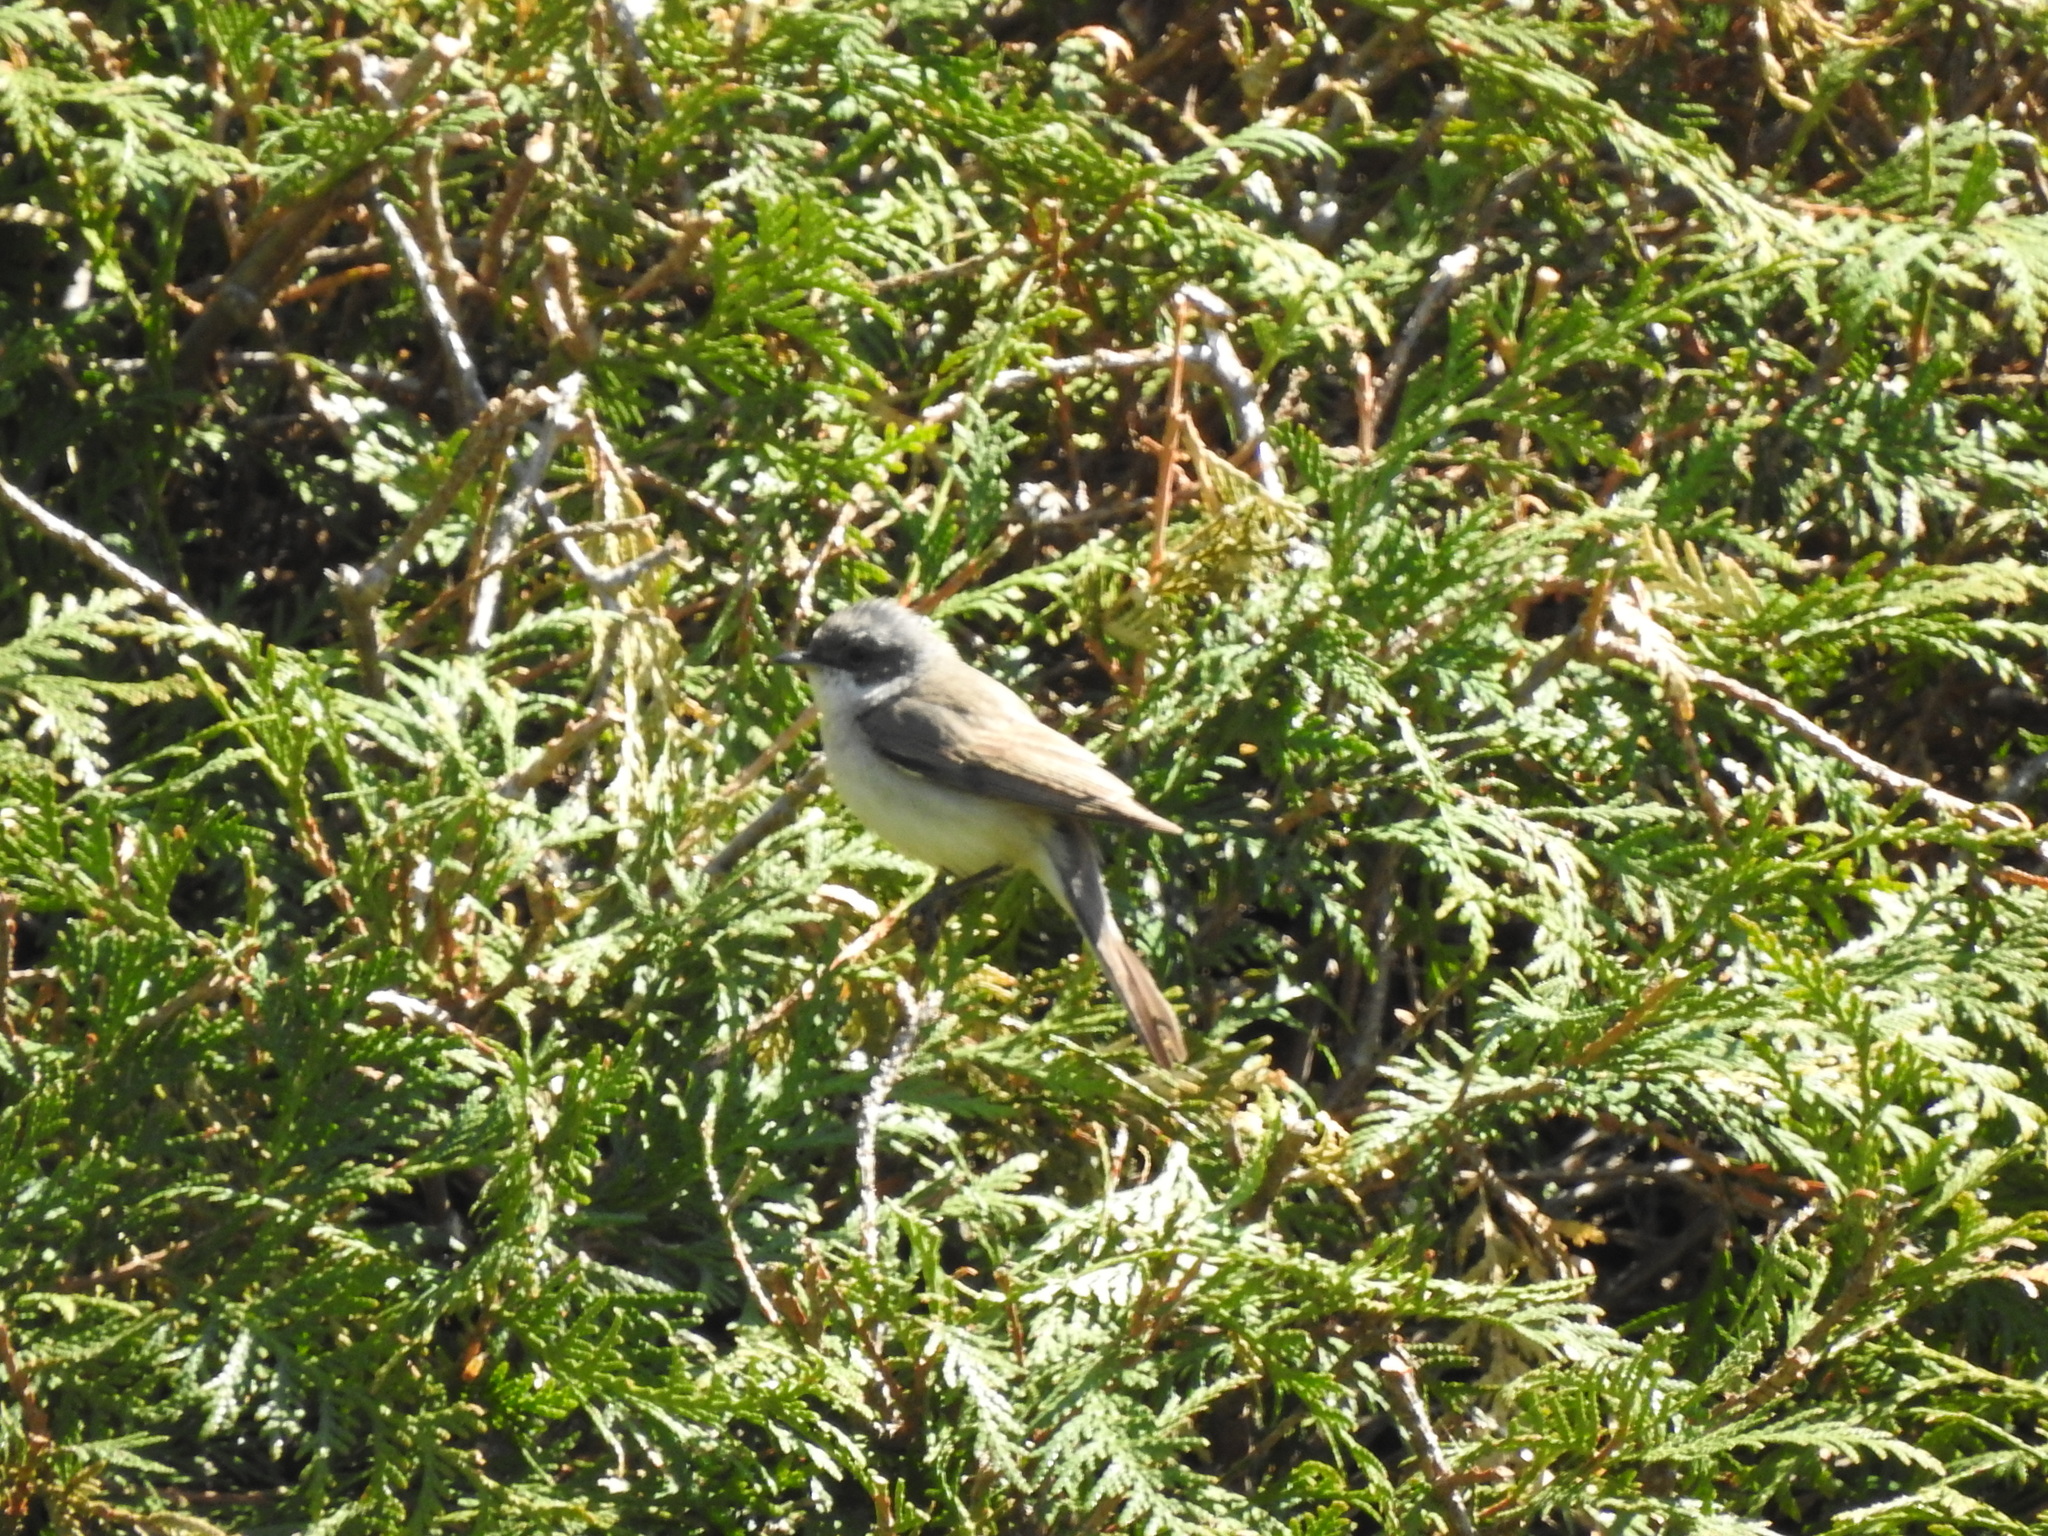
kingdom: Animalia
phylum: Chordata
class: Aves
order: Passeriformes
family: Sylviidae
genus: Sylvia
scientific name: Sylvia curruca
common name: Lesser whitethroat
